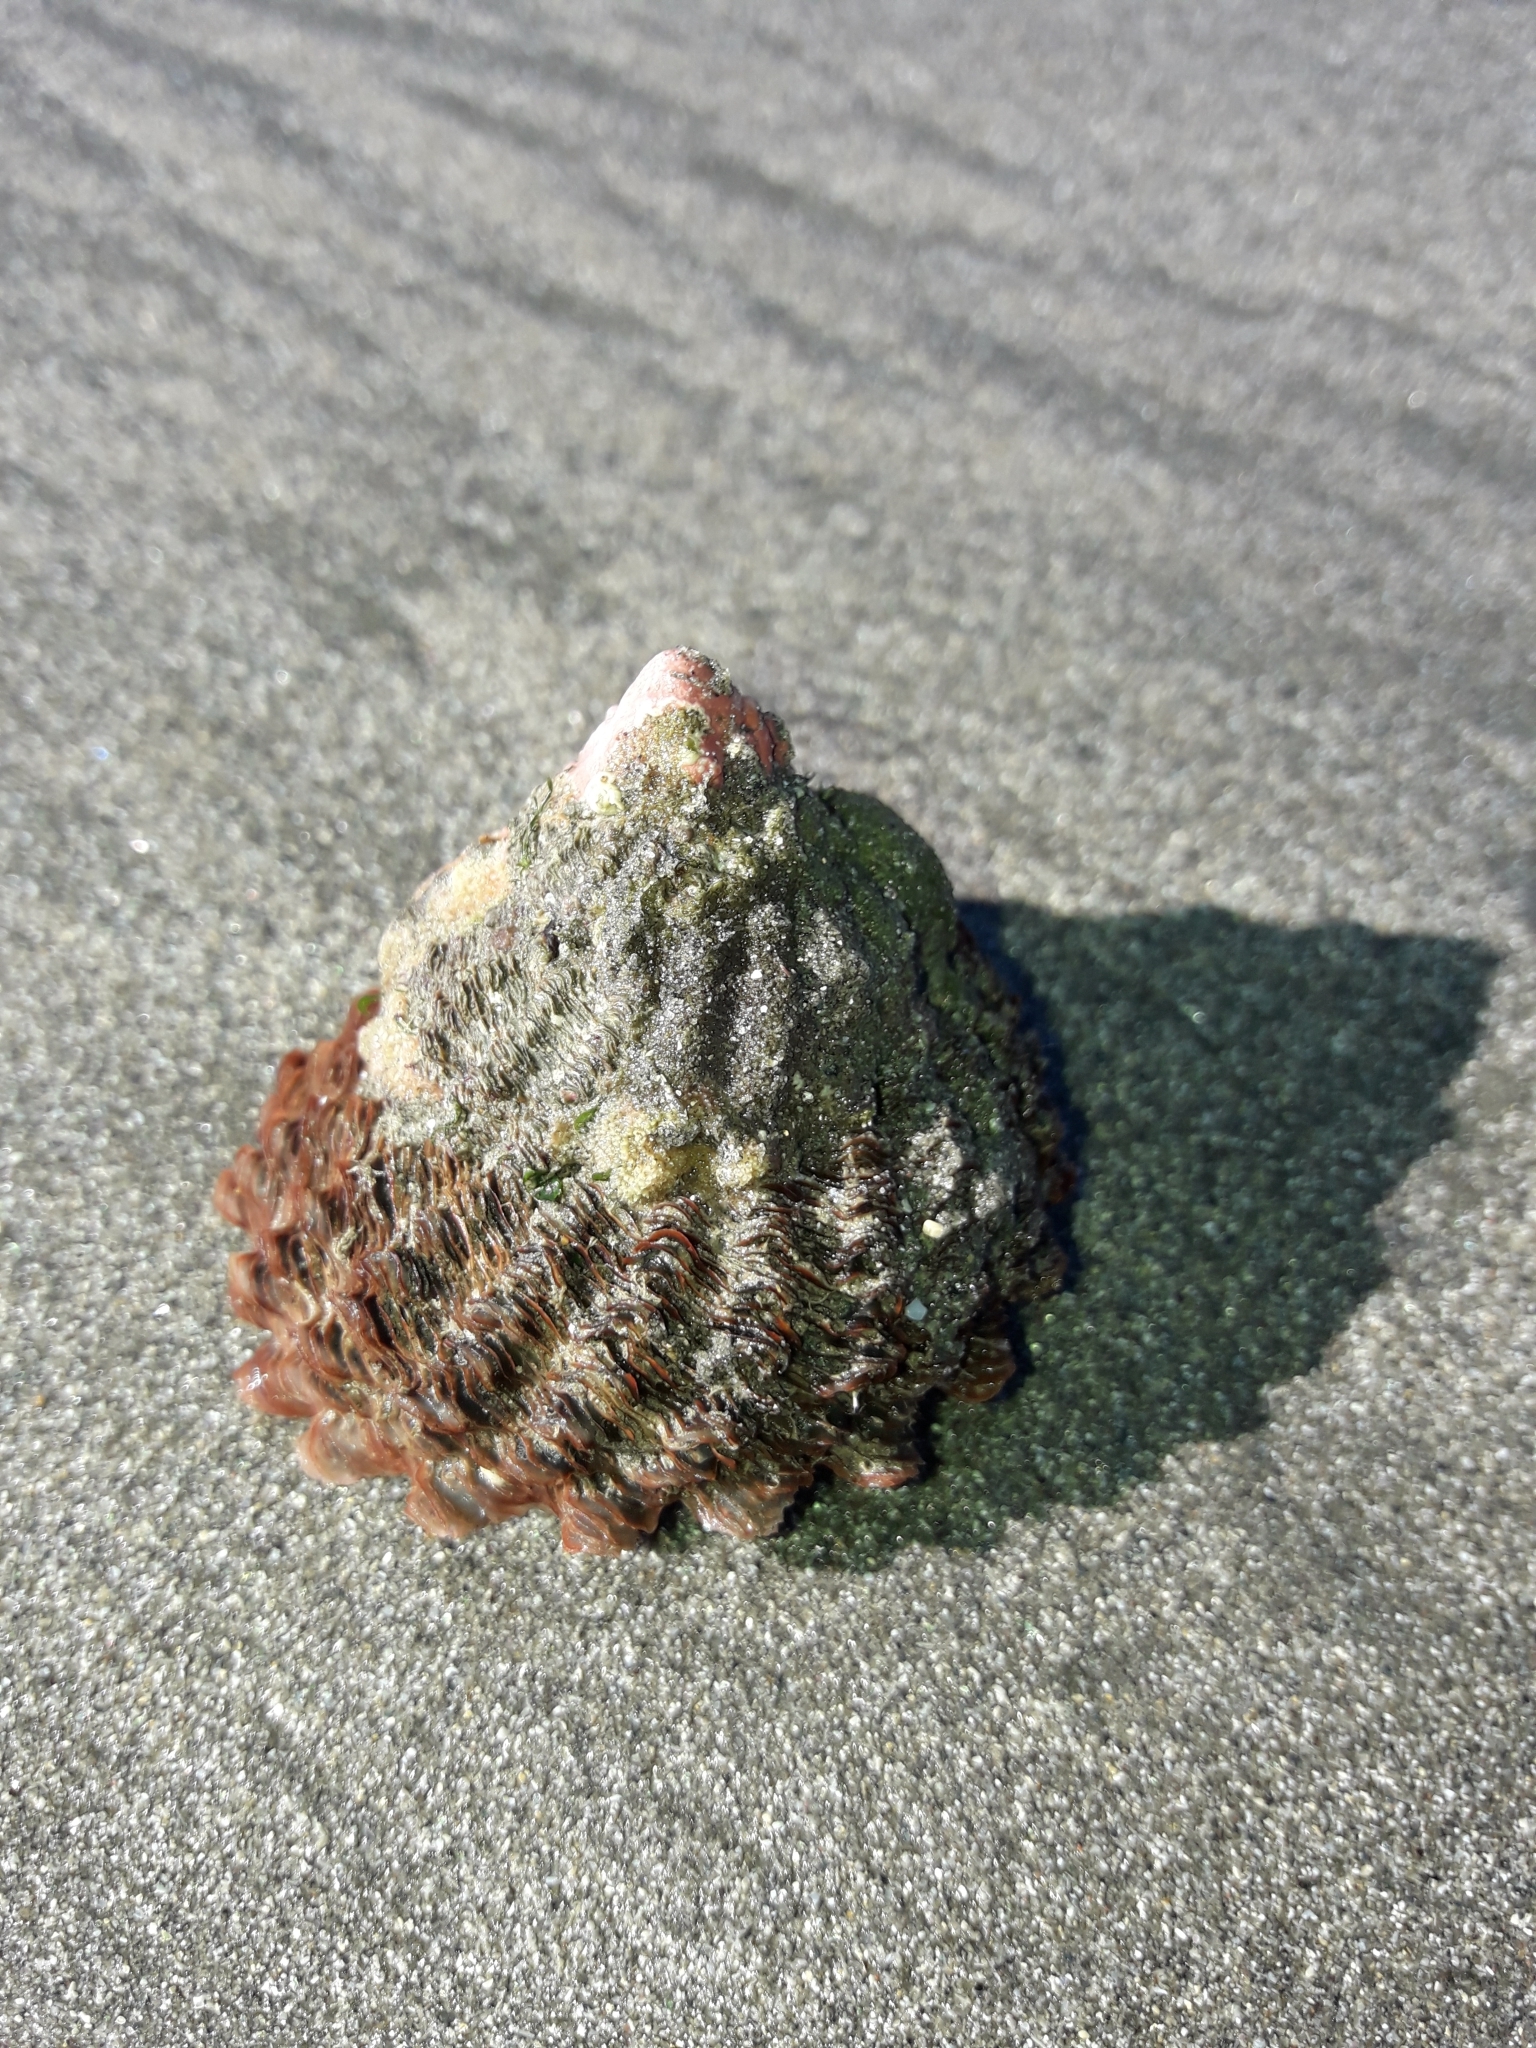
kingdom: Animalia
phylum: Mollusca
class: Gastropoda
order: Trochida
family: Turbinidae
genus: Cookia
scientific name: Cookia sulcata
